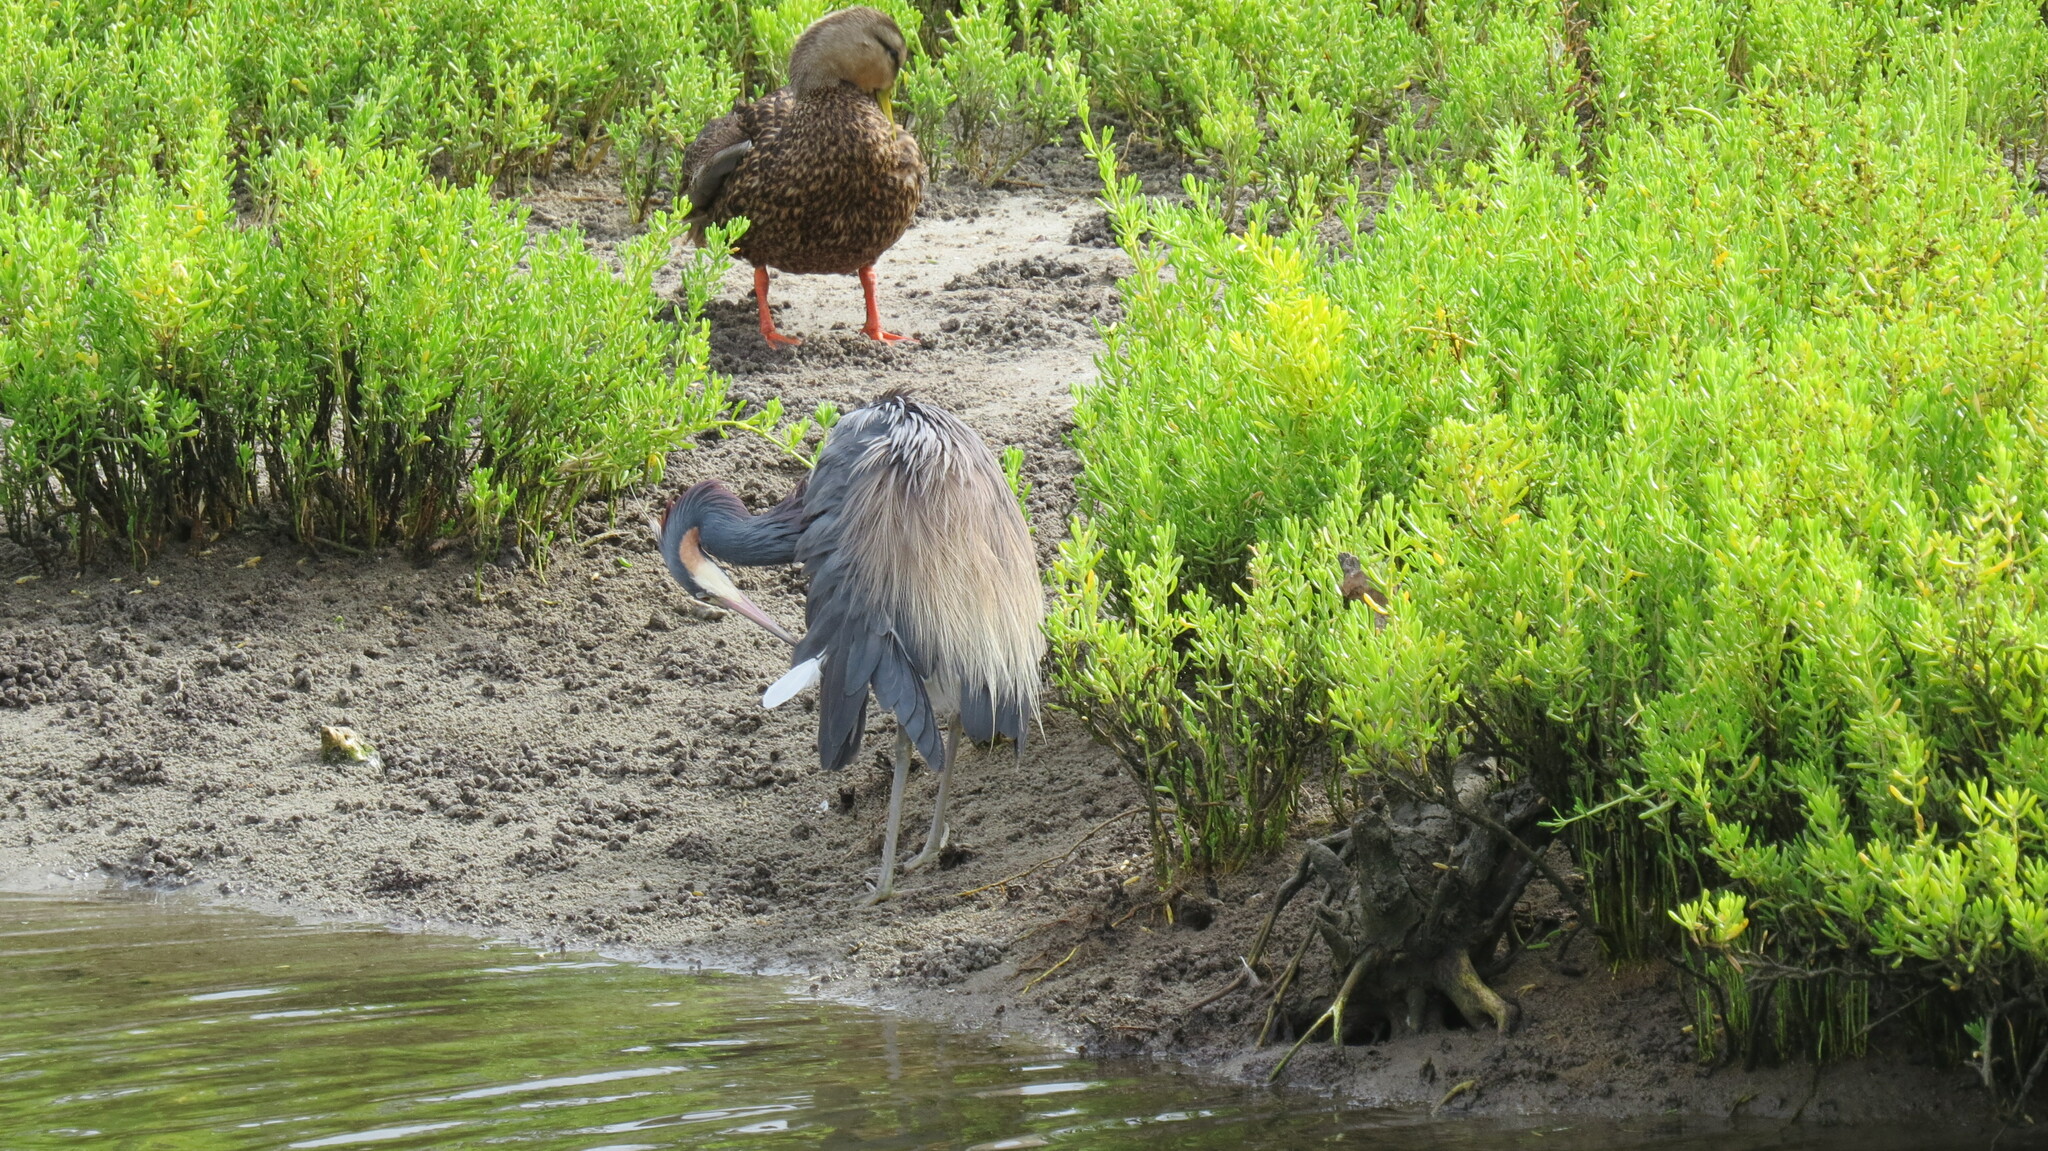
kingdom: Animalia
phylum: Chordata
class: Aves
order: Pelecaniformes
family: Ardeidae
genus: Egretta
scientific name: Egretta tricolor
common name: Tricolored heron
